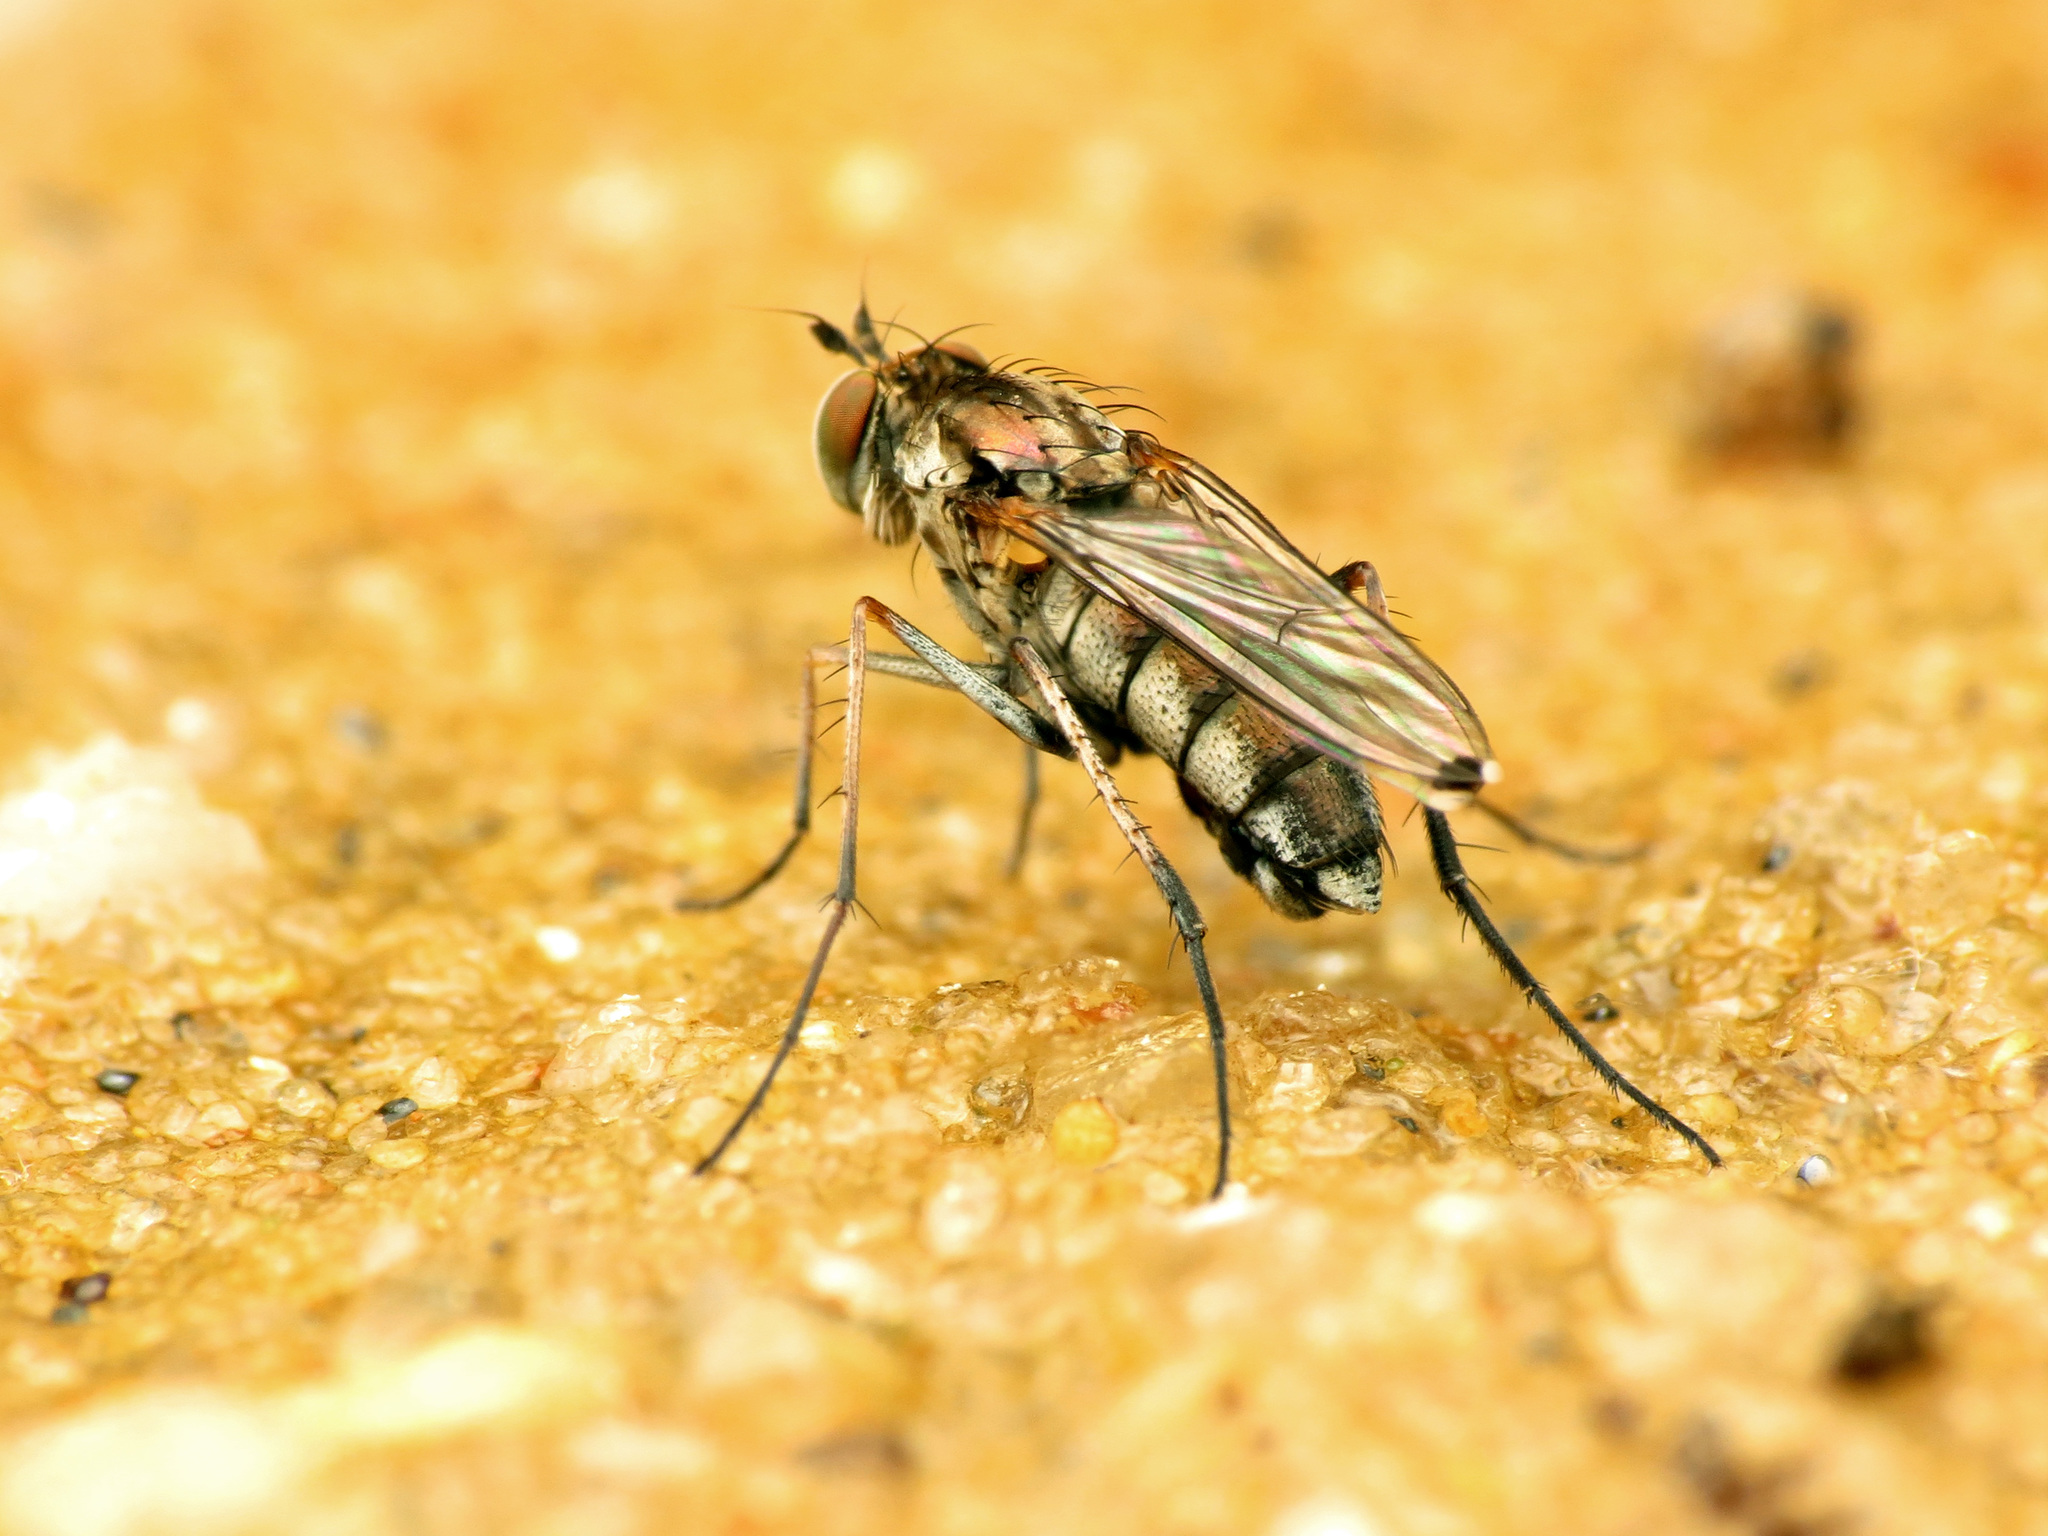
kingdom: Animalia
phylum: Arthropoda
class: Insecta
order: Diptera
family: Dolichopodidae
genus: Tachytrechus
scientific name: Tachytrechus vorax
